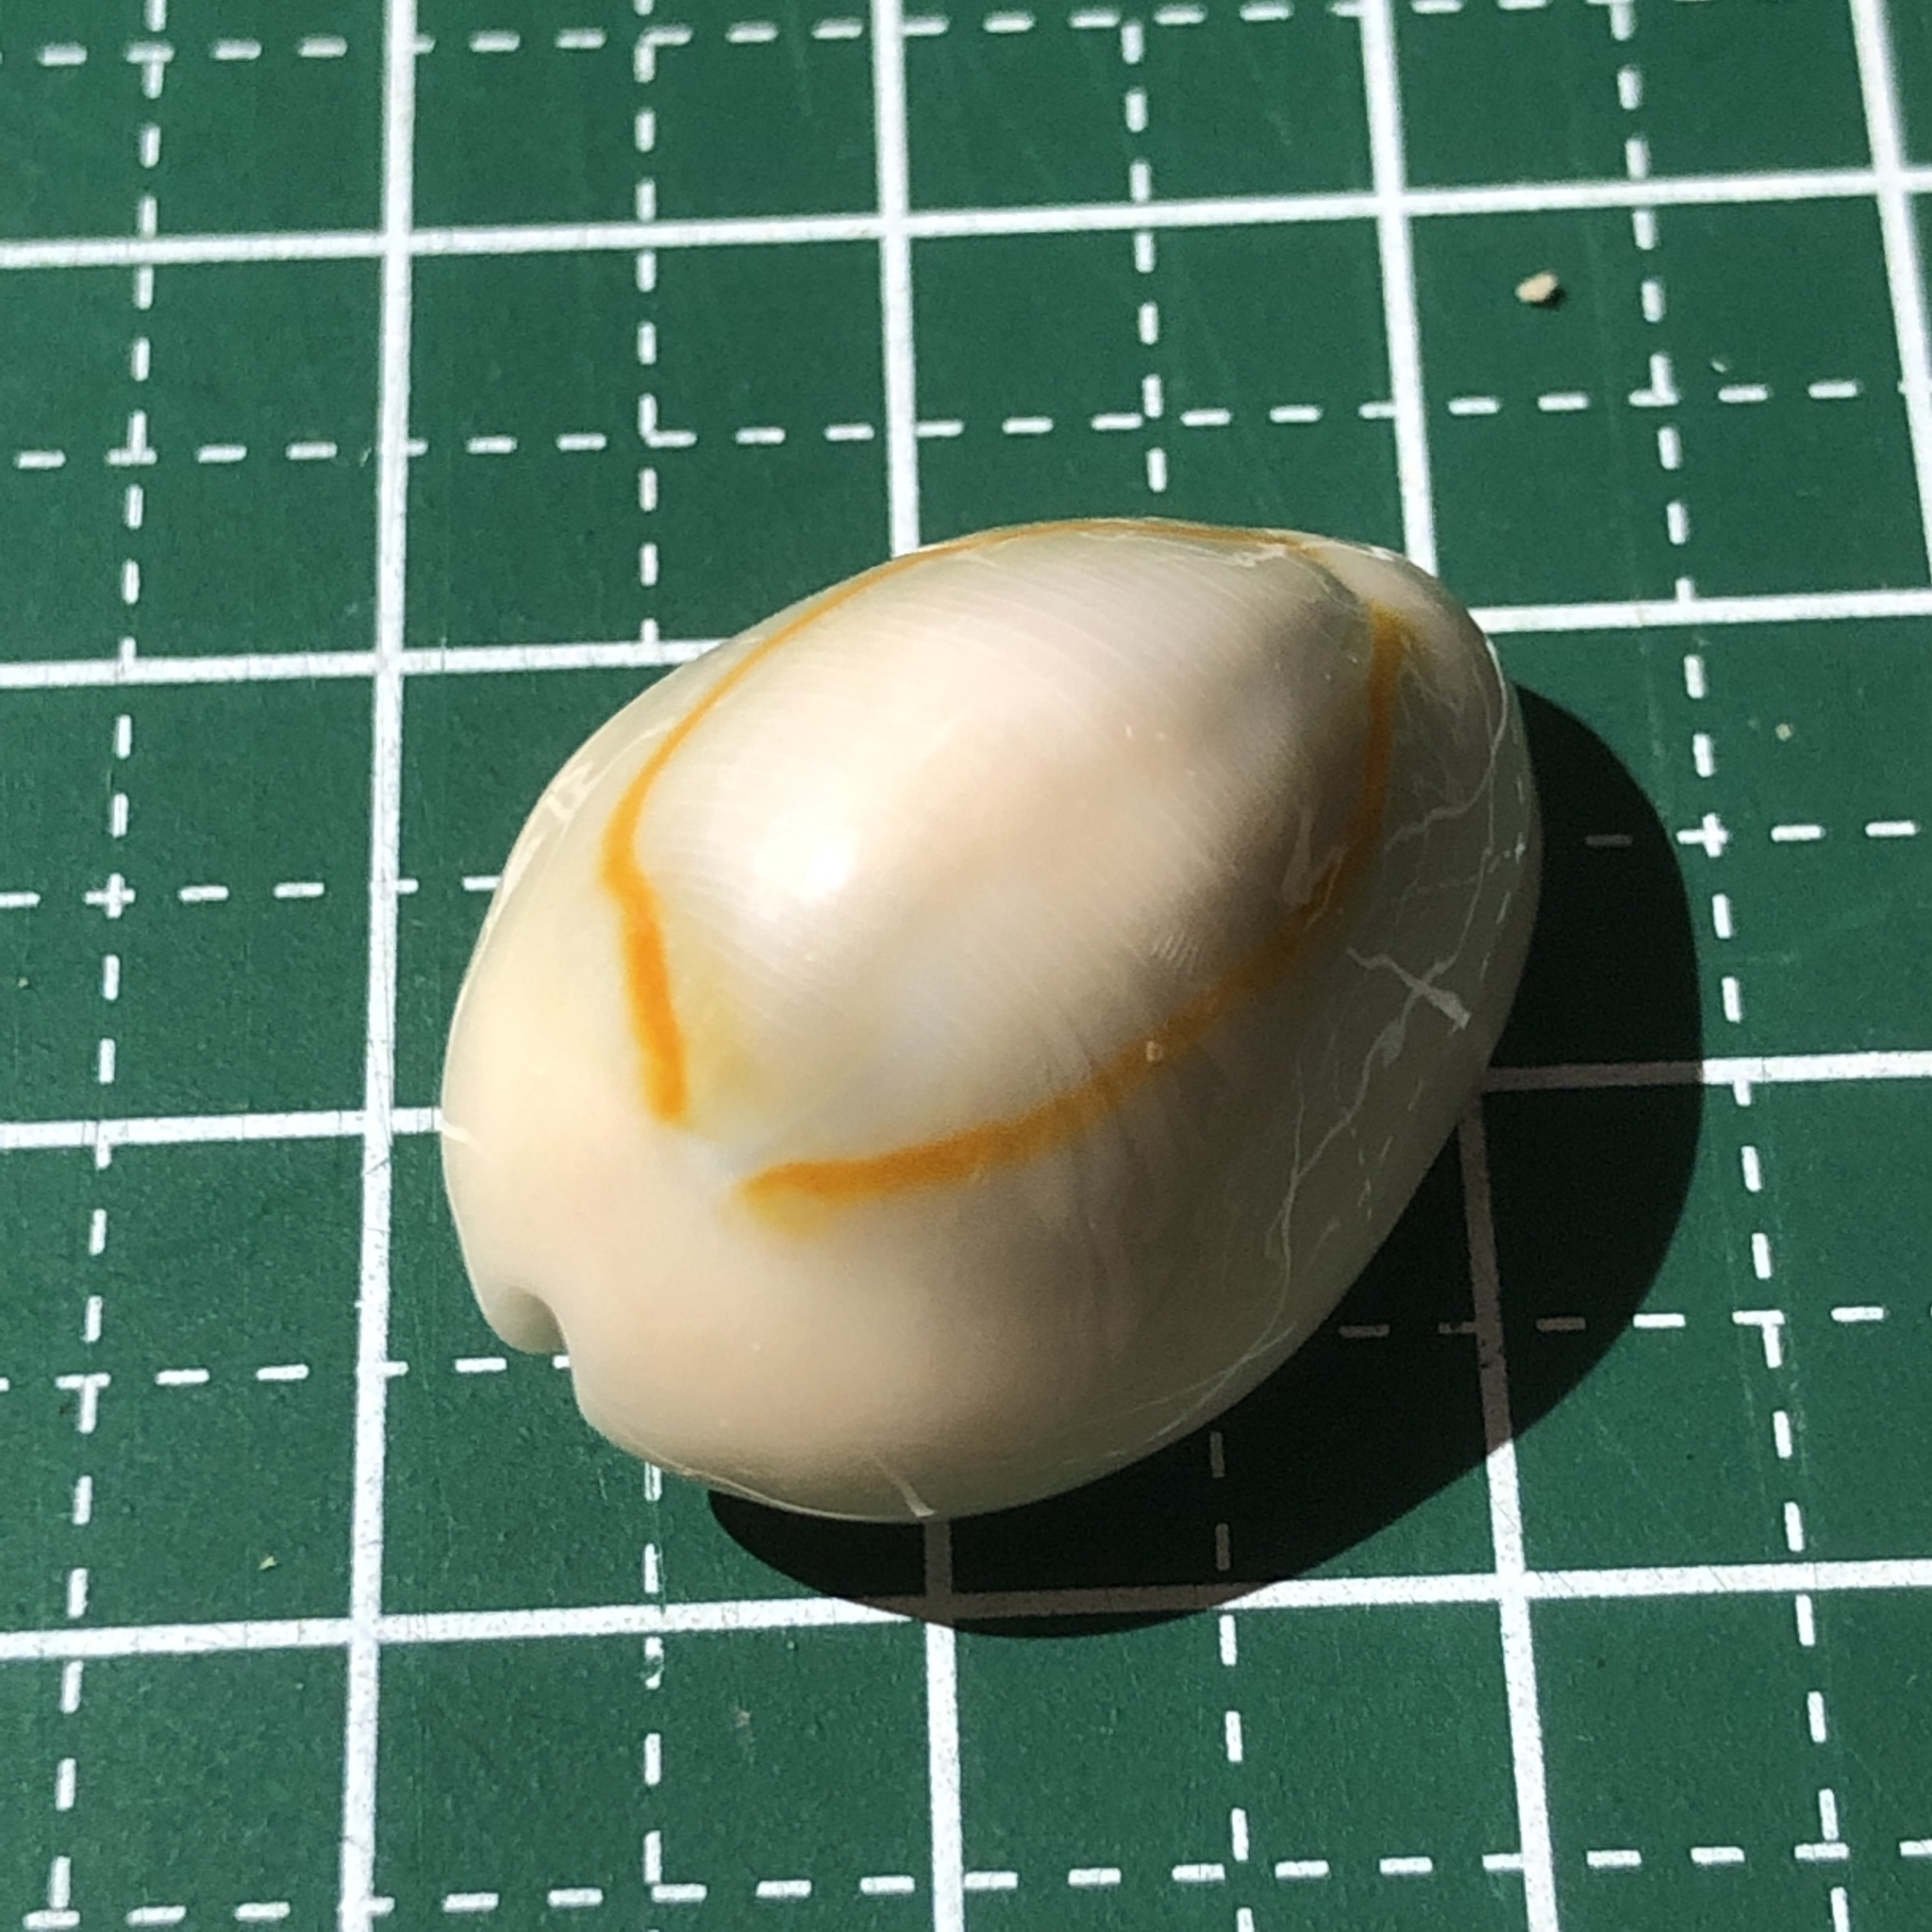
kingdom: Animalia
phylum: Mollusca
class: Gastropoda
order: Littorinimorpha
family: Cypraeidae
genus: Monetaria
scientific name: Monetaria annulus
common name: Ring cowrie
